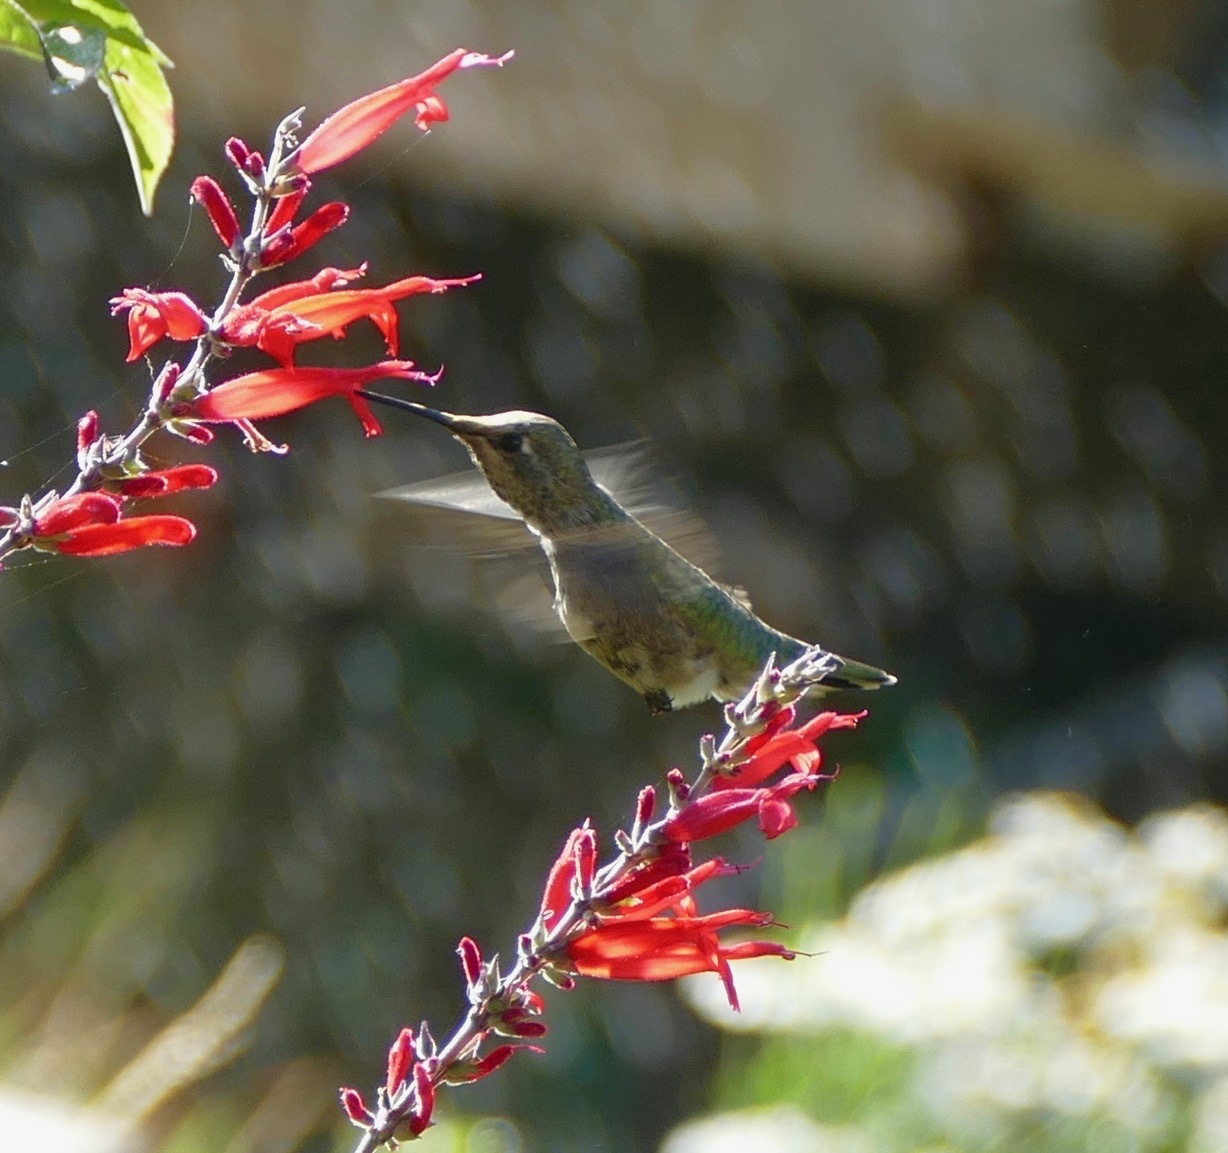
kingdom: Animalia
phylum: Chordata
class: Aves
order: Apodiformes
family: Trochilidae
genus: Calypte
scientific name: Calypte anna
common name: Anna's hummingbird
